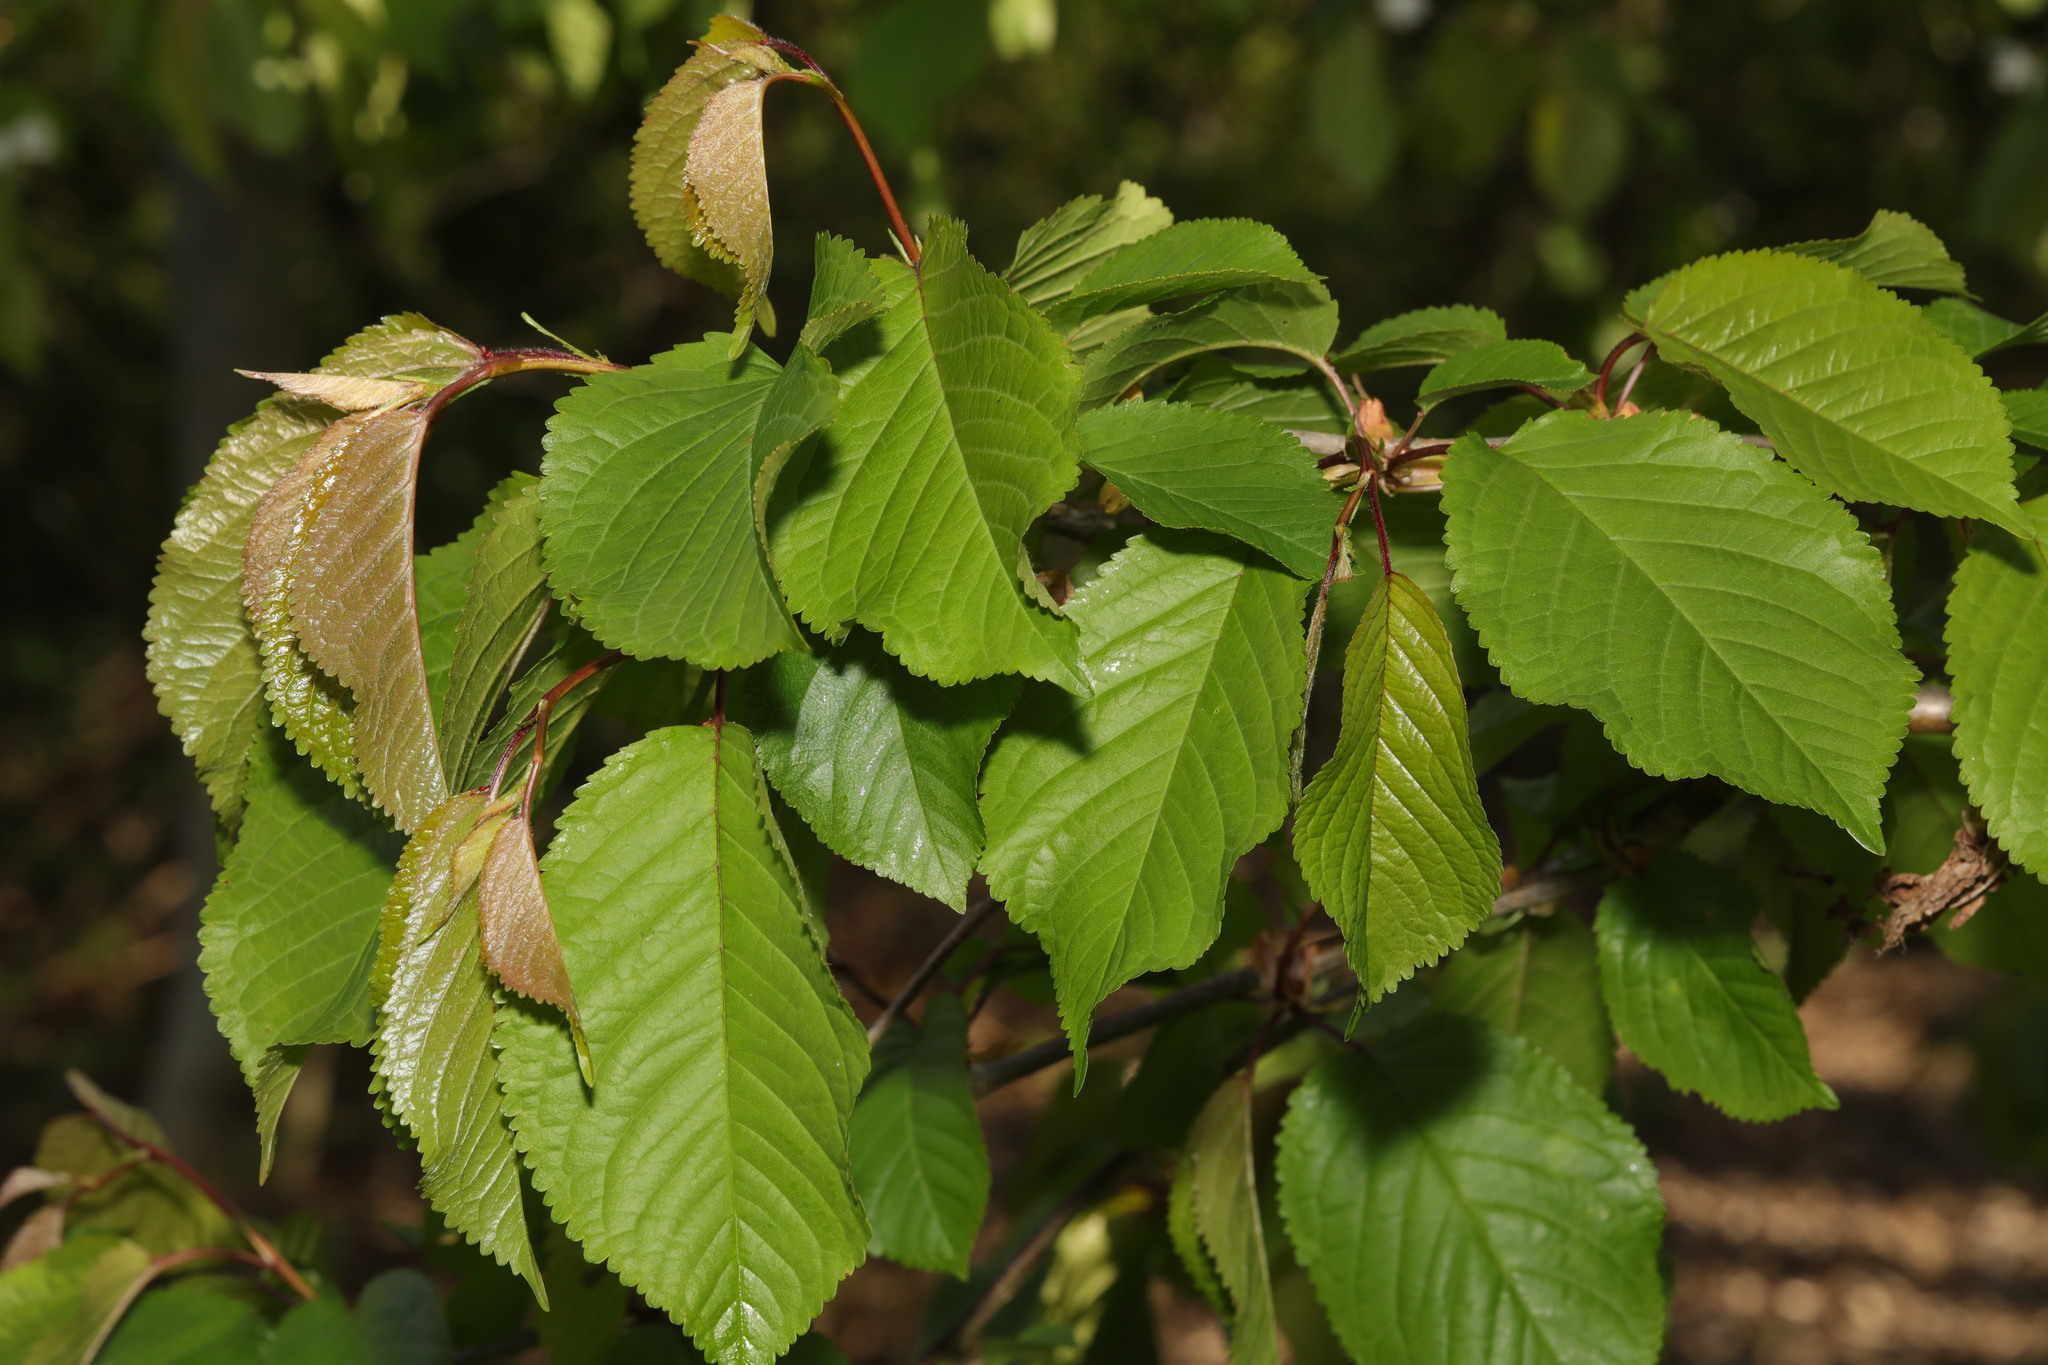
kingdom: Plantae
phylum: Tracheophyta
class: Magnoliopsida
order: Rosales
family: Rosaceae
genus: Prunus
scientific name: Prunus avium
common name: Sweet cherry
